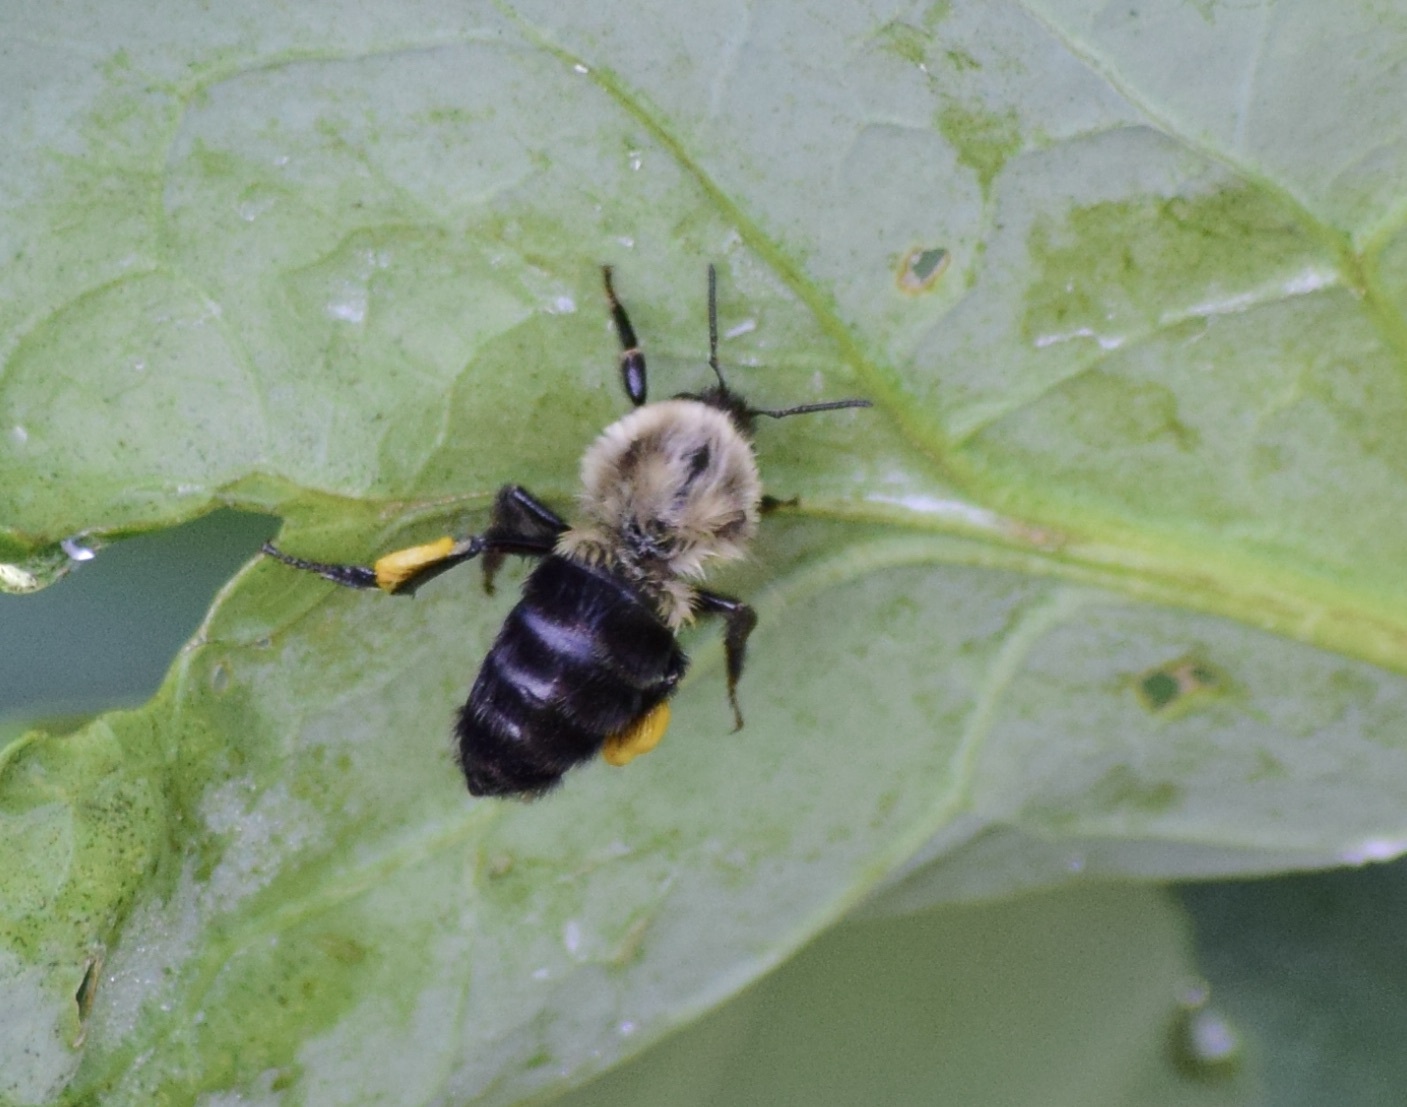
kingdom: Animalia
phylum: Arthropoda
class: Insecta
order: Hymenoptera
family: Apidae
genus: Bombus
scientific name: Bombus impatiens
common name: Common eastern bumble bee
